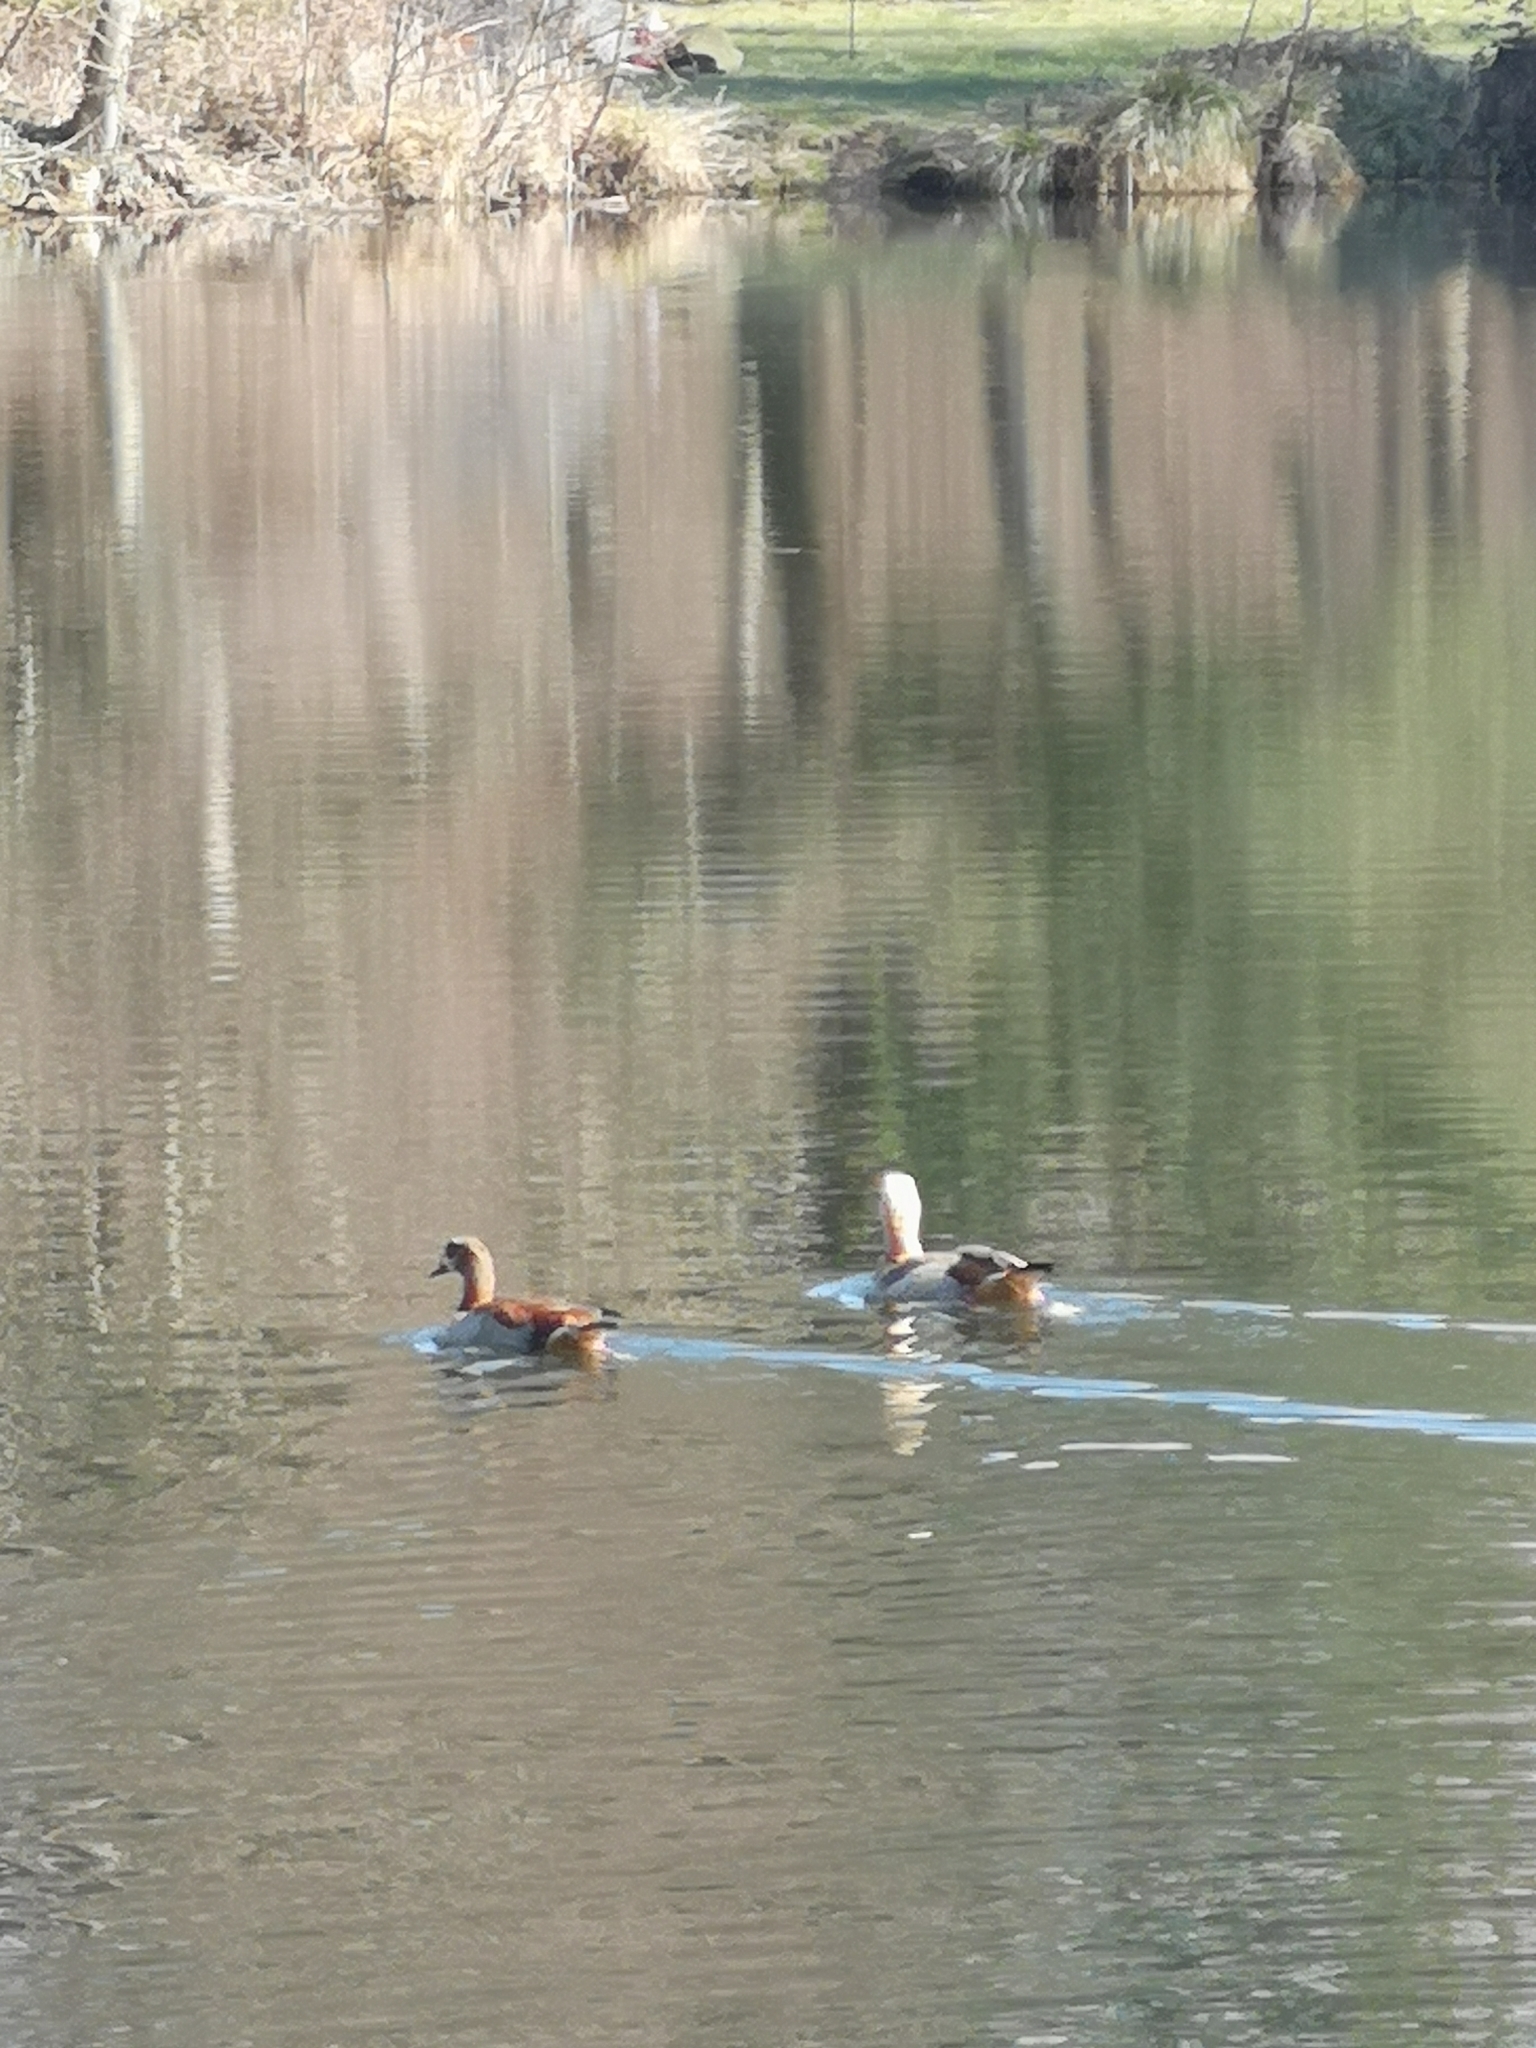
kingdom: Animalia
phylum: Chordata
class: Aves
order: Anseriformes
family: Anatidae
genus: Alopochen
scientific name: Alopochen aegyptiaca
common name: Egyptian goose
